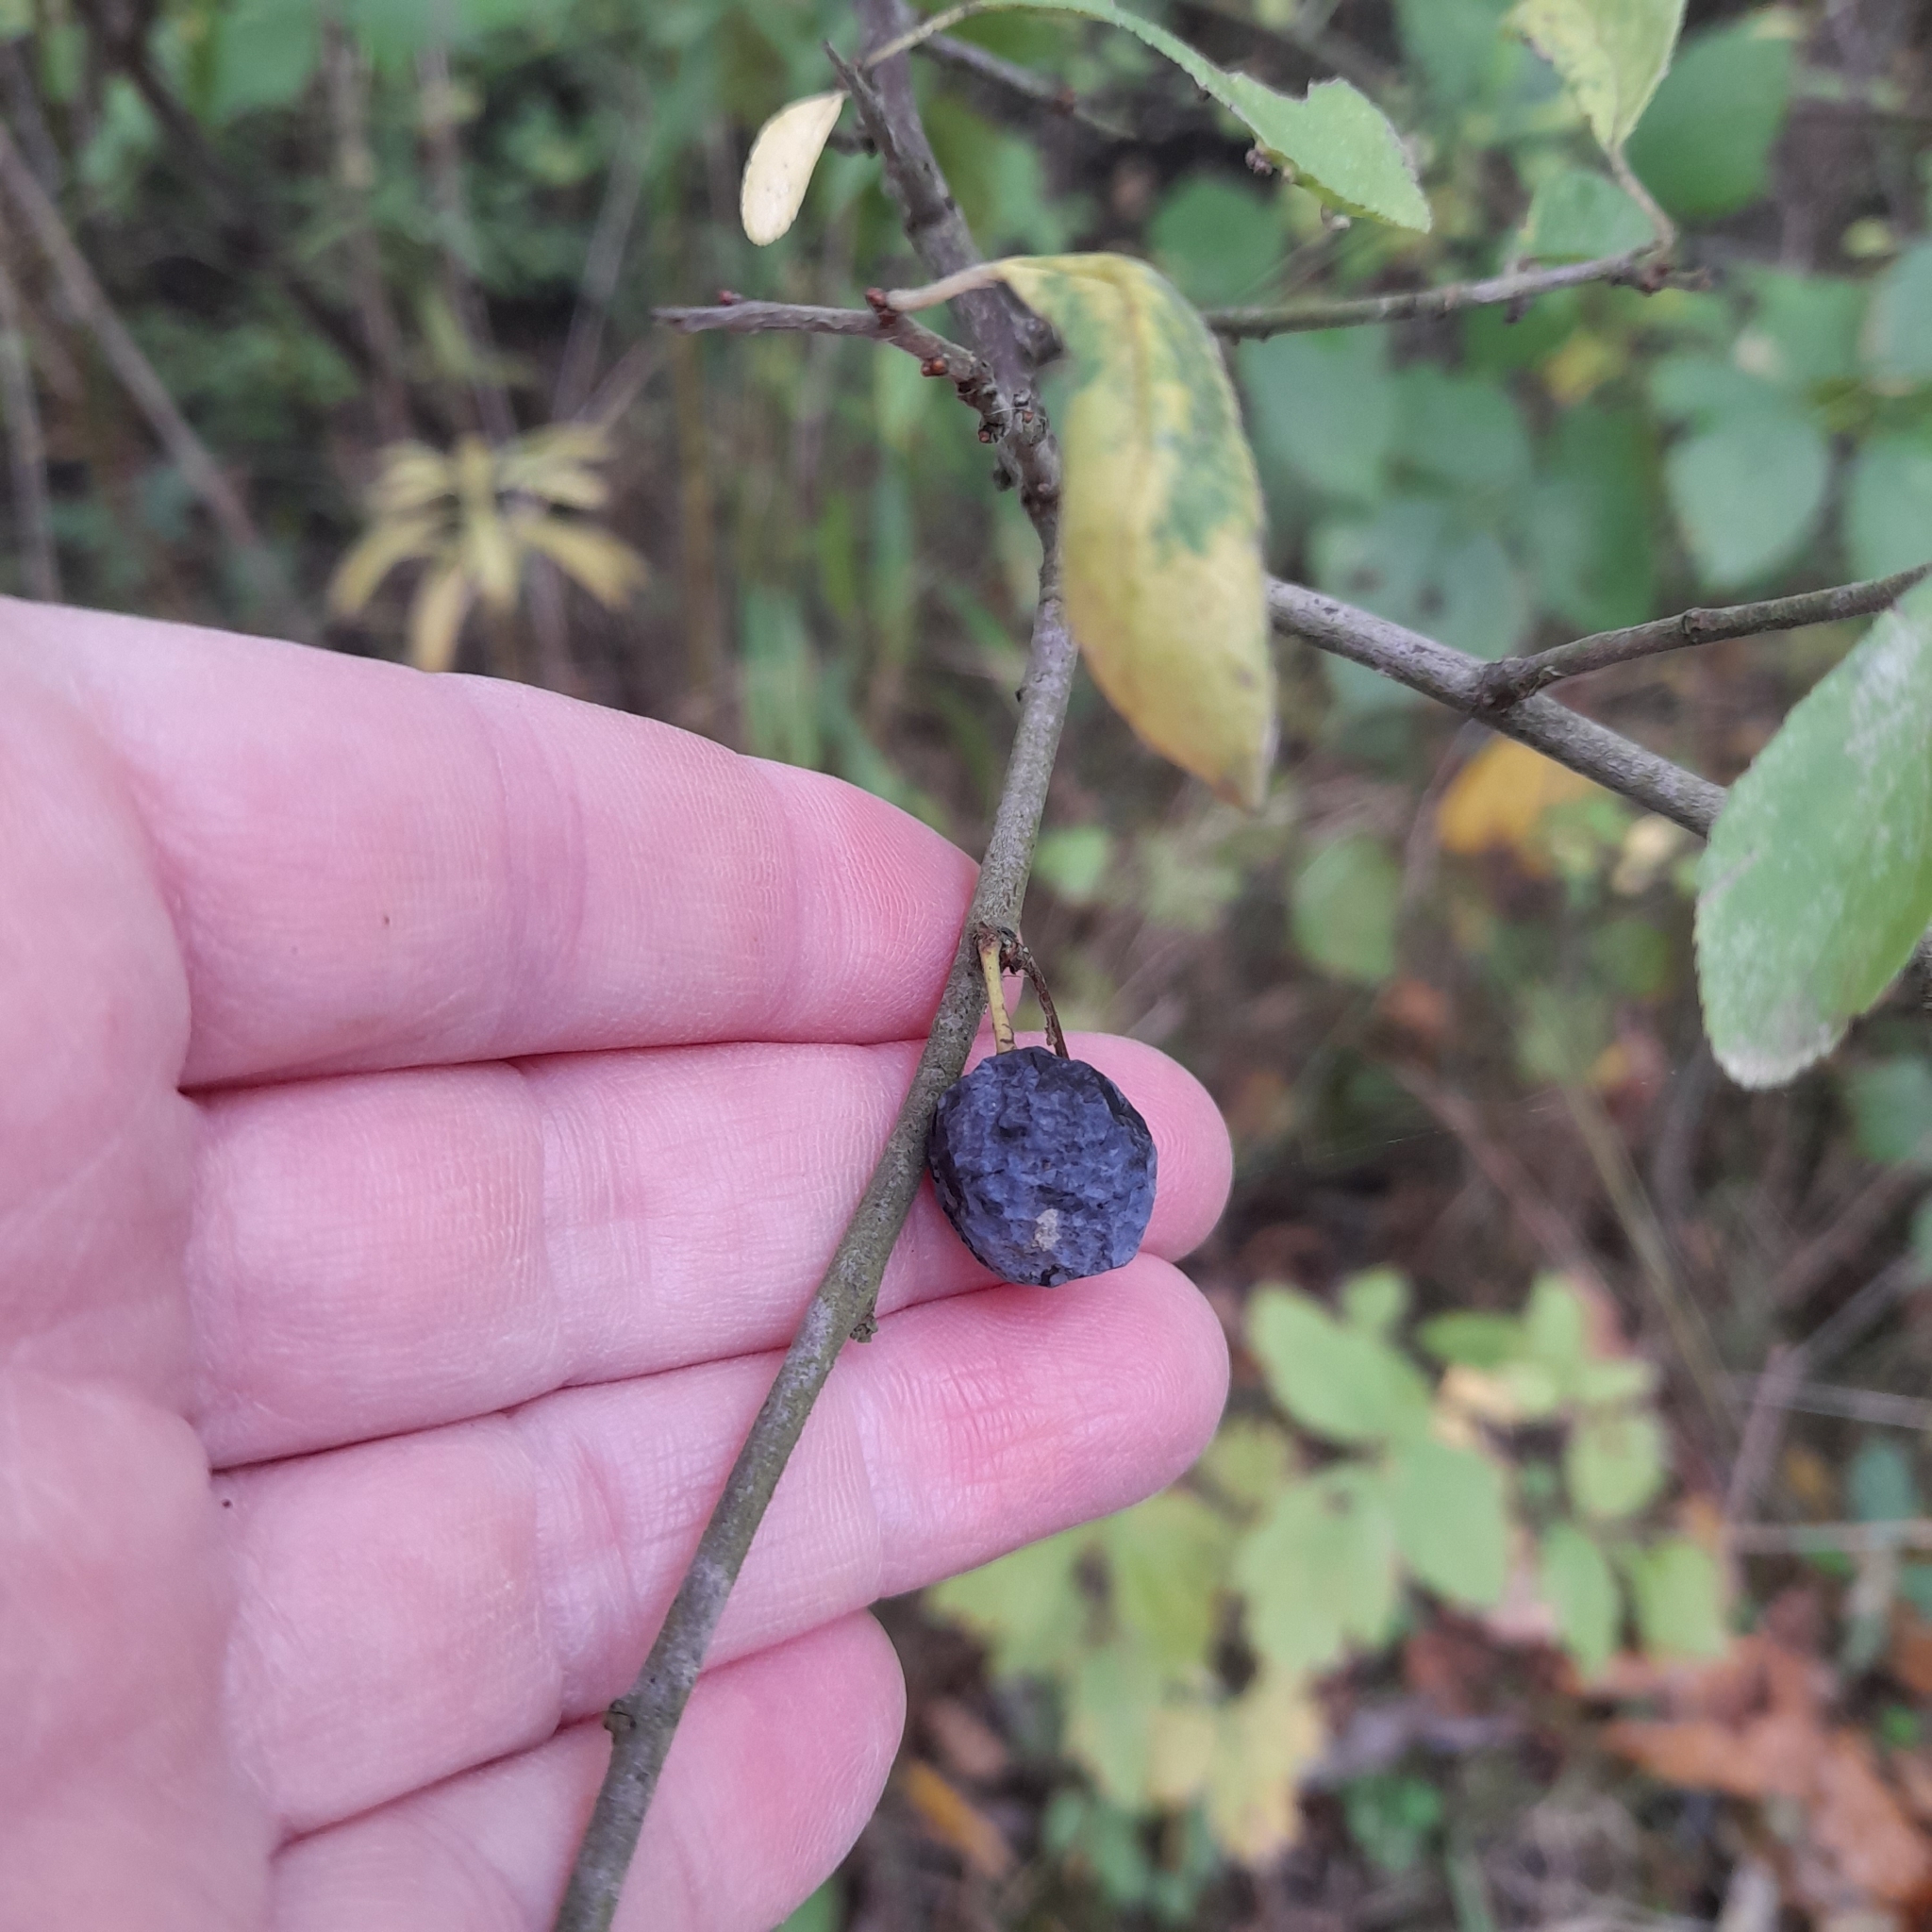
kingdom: Plantae
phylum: Tracheophyta
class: Magnoliopsida
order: Rosales
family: Rosaceae
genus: Prunus
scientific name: Prunus spinosa
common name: Blackthorn
